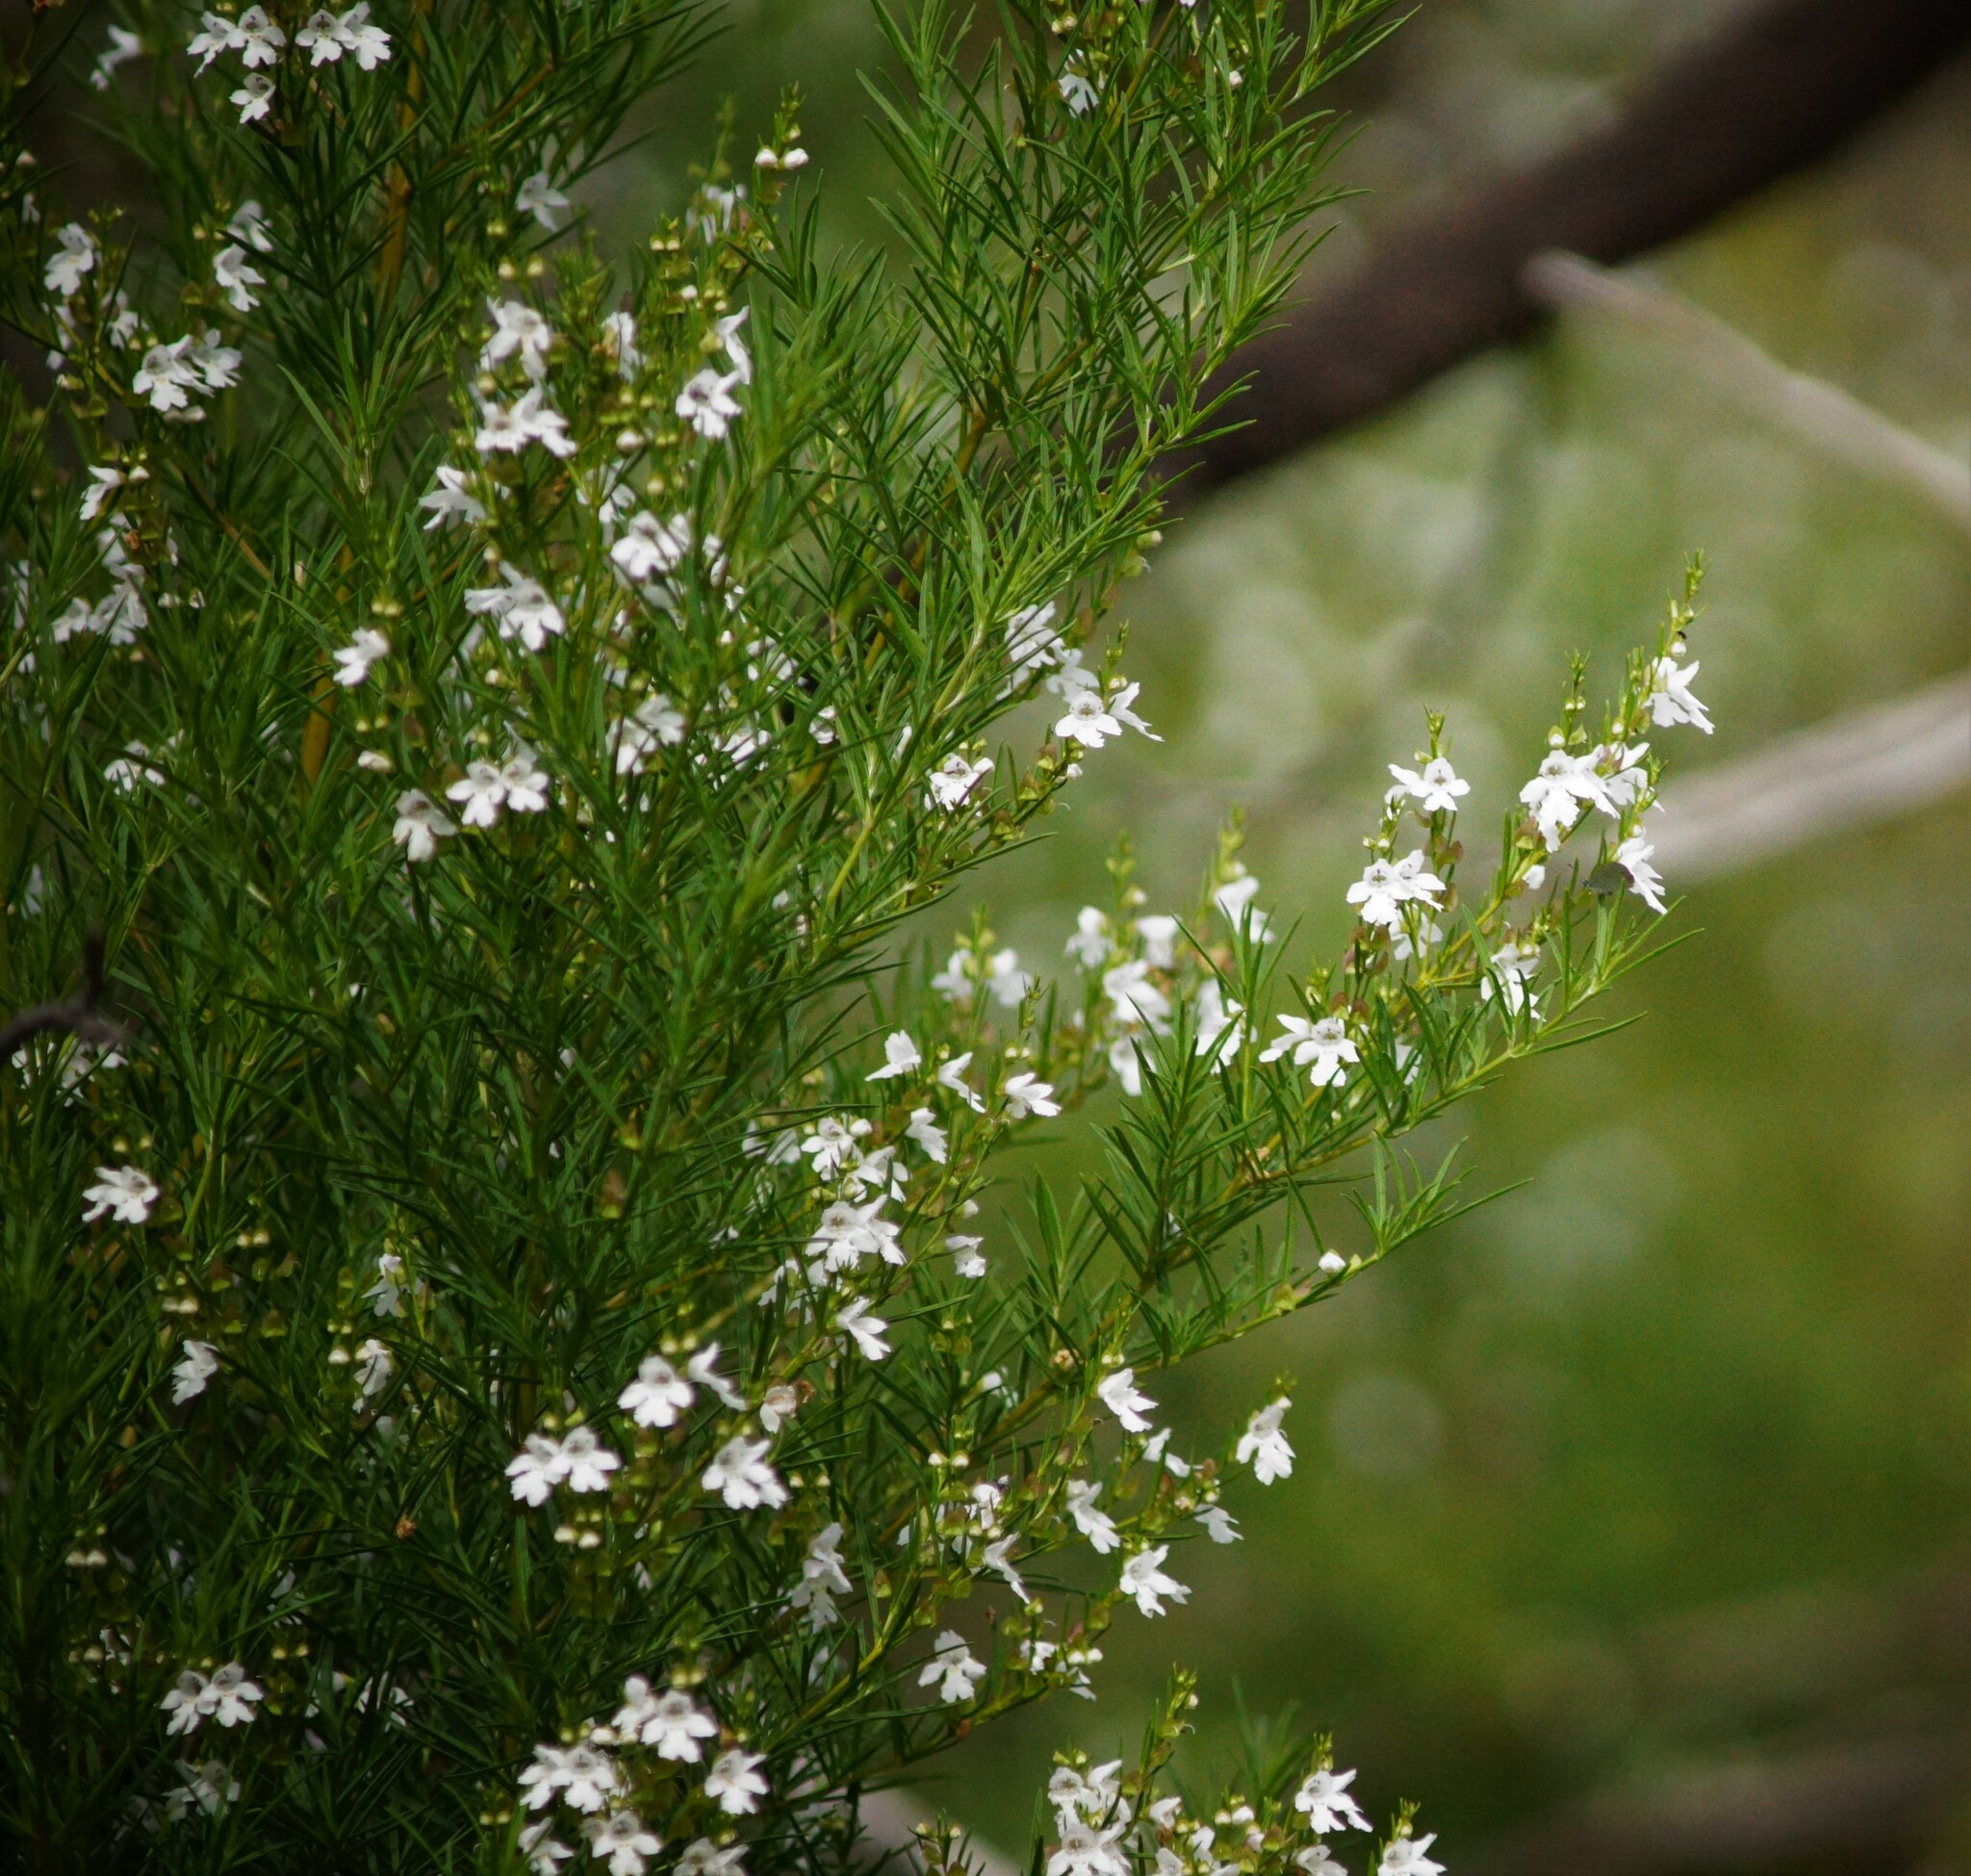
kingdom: Plantae
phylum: Tracheophyta
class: Magnoliopsida
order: Lamiales
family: Lamiaceae
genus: Prostanthera
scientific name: Prostanthera nivea
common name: Snowy mintbush
